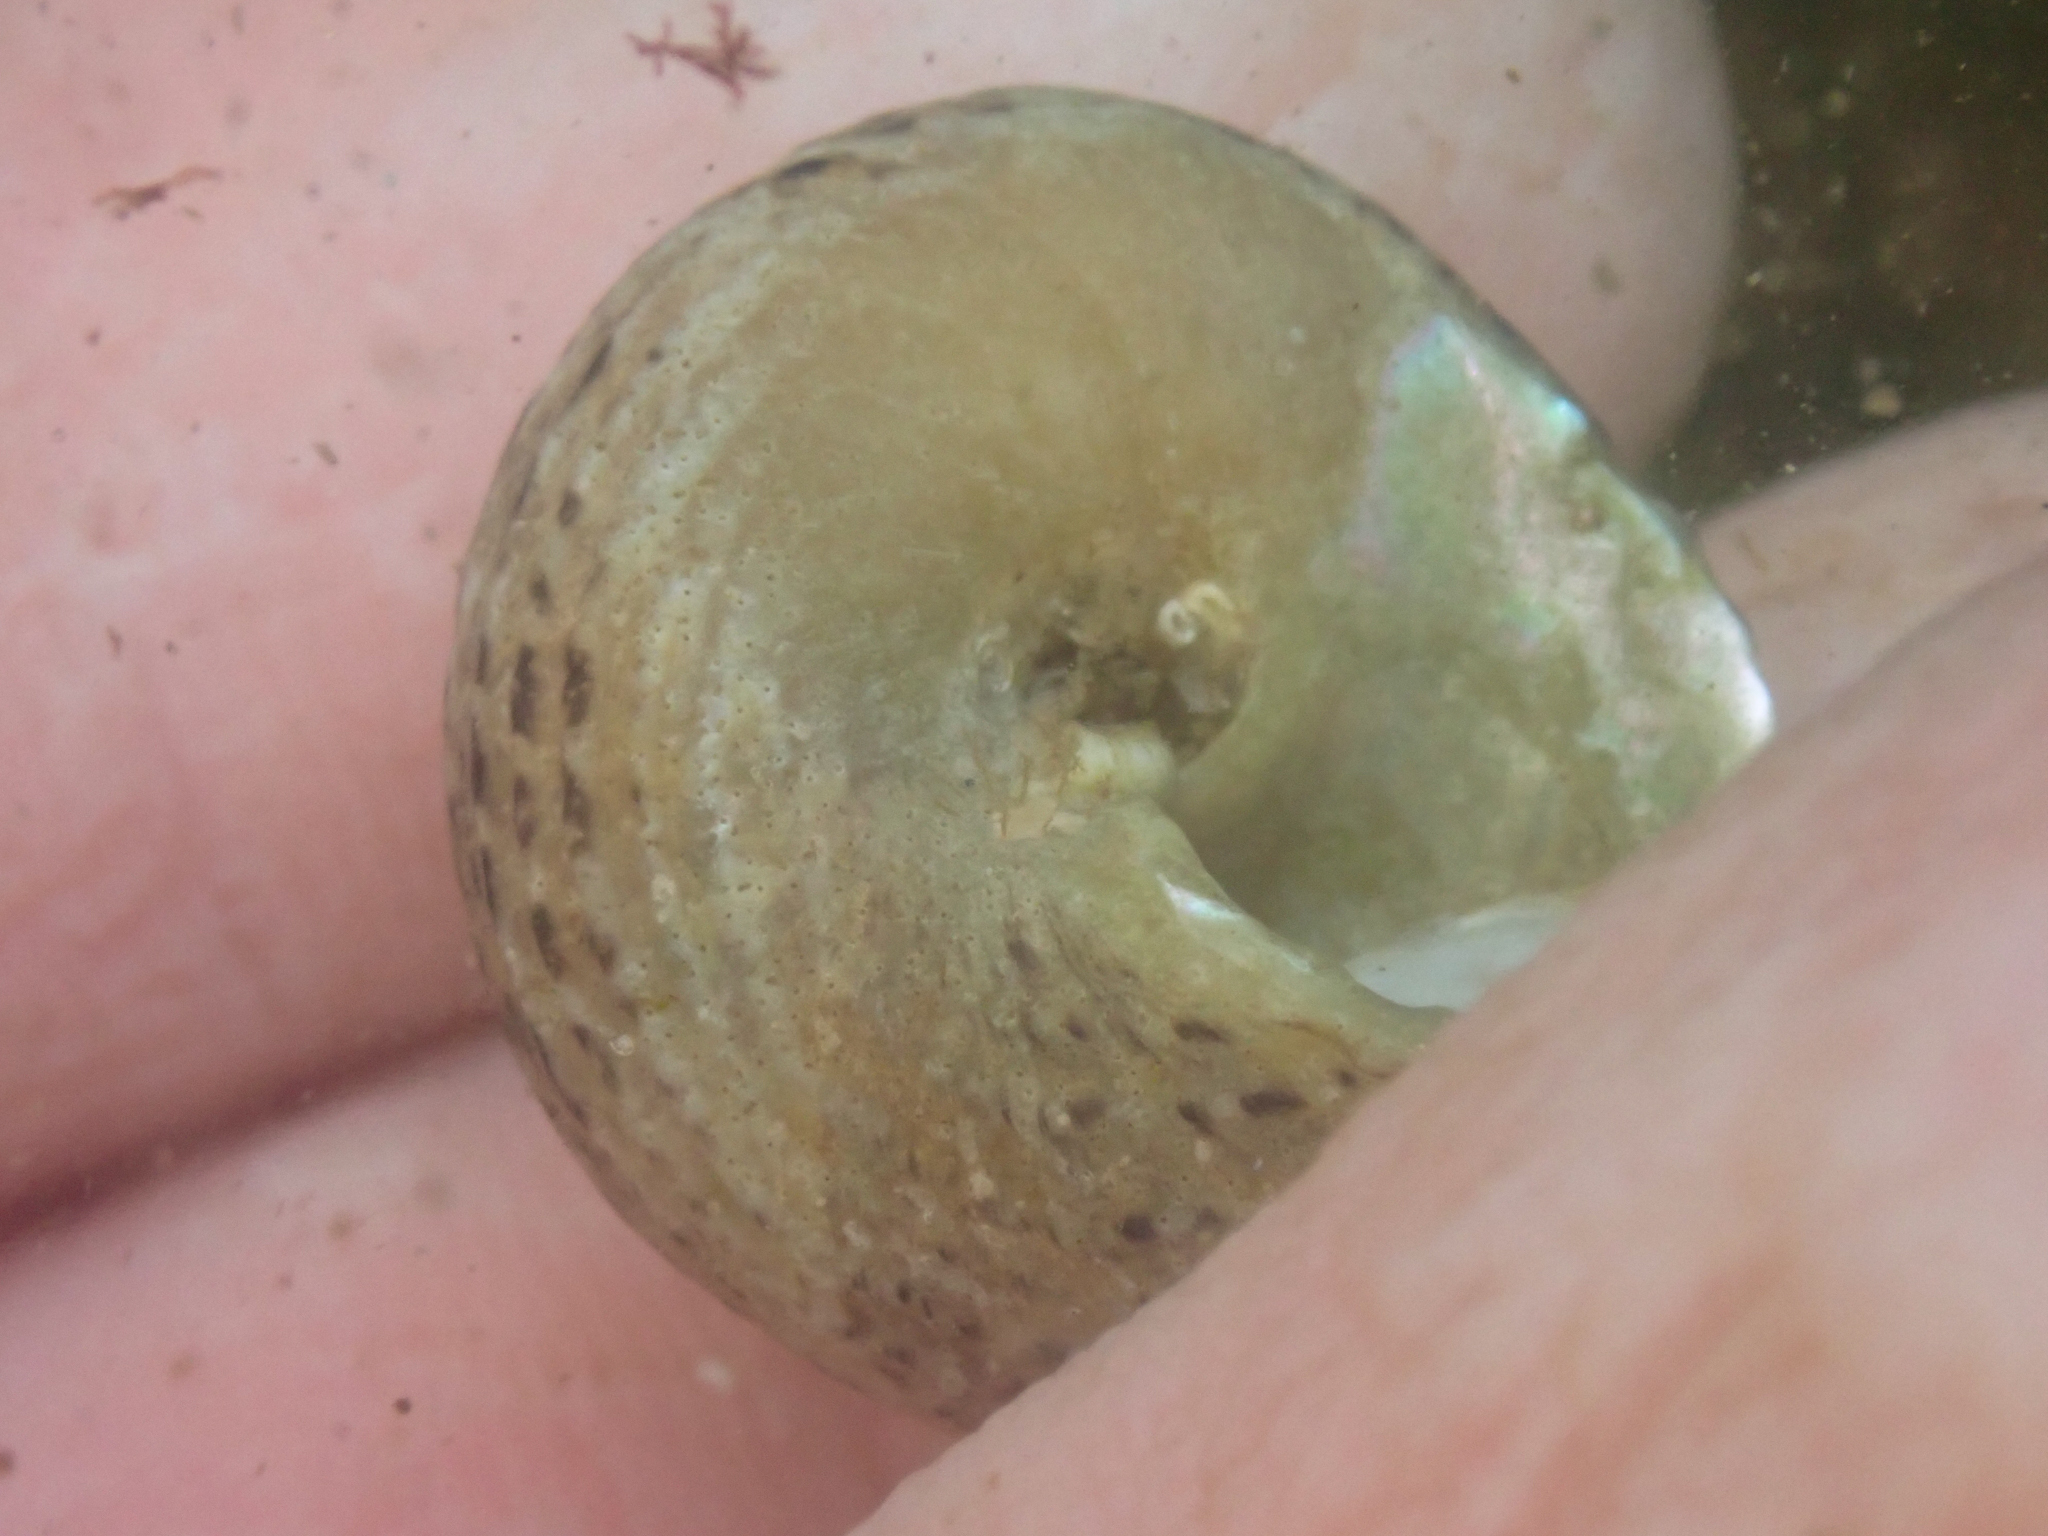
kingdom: Animalia
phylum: Mollusca
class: Gastropoda
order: Trochida
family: Tegulidae
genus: Tegula
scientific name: Tegula eiseni
